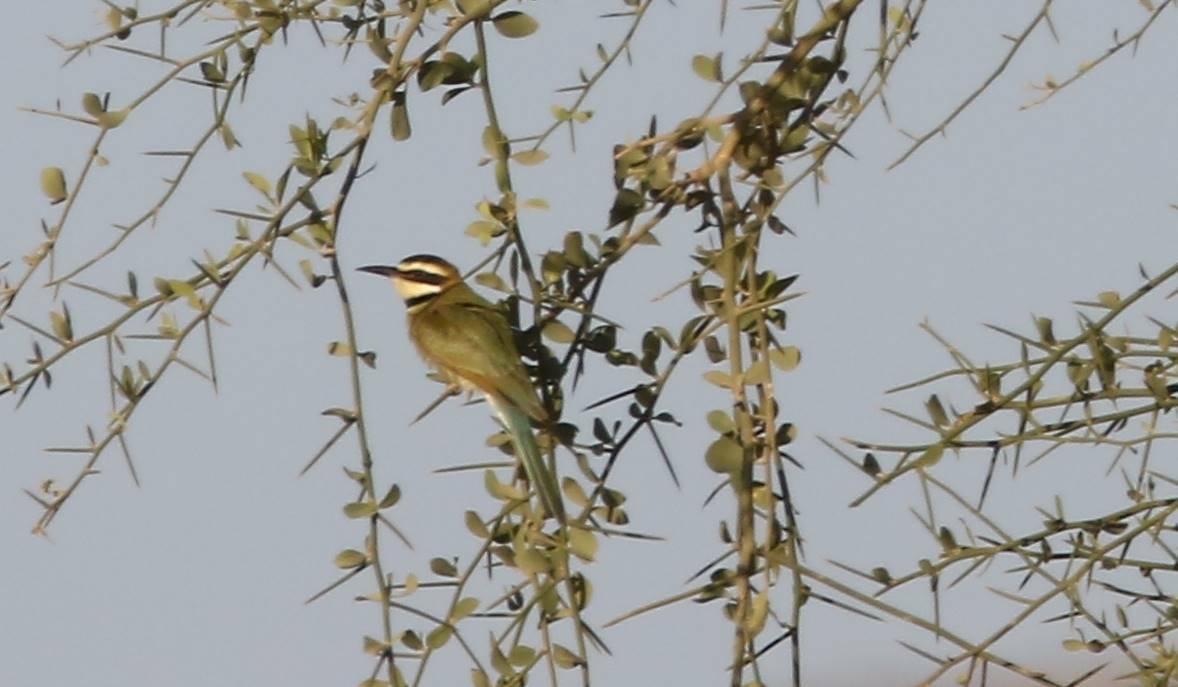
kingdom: Animalia
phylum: Chordata
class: Aves
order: Coraciiformes
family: Meropidae
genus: Merops
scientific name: Merops albicollis
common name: White-throated bee-eater
